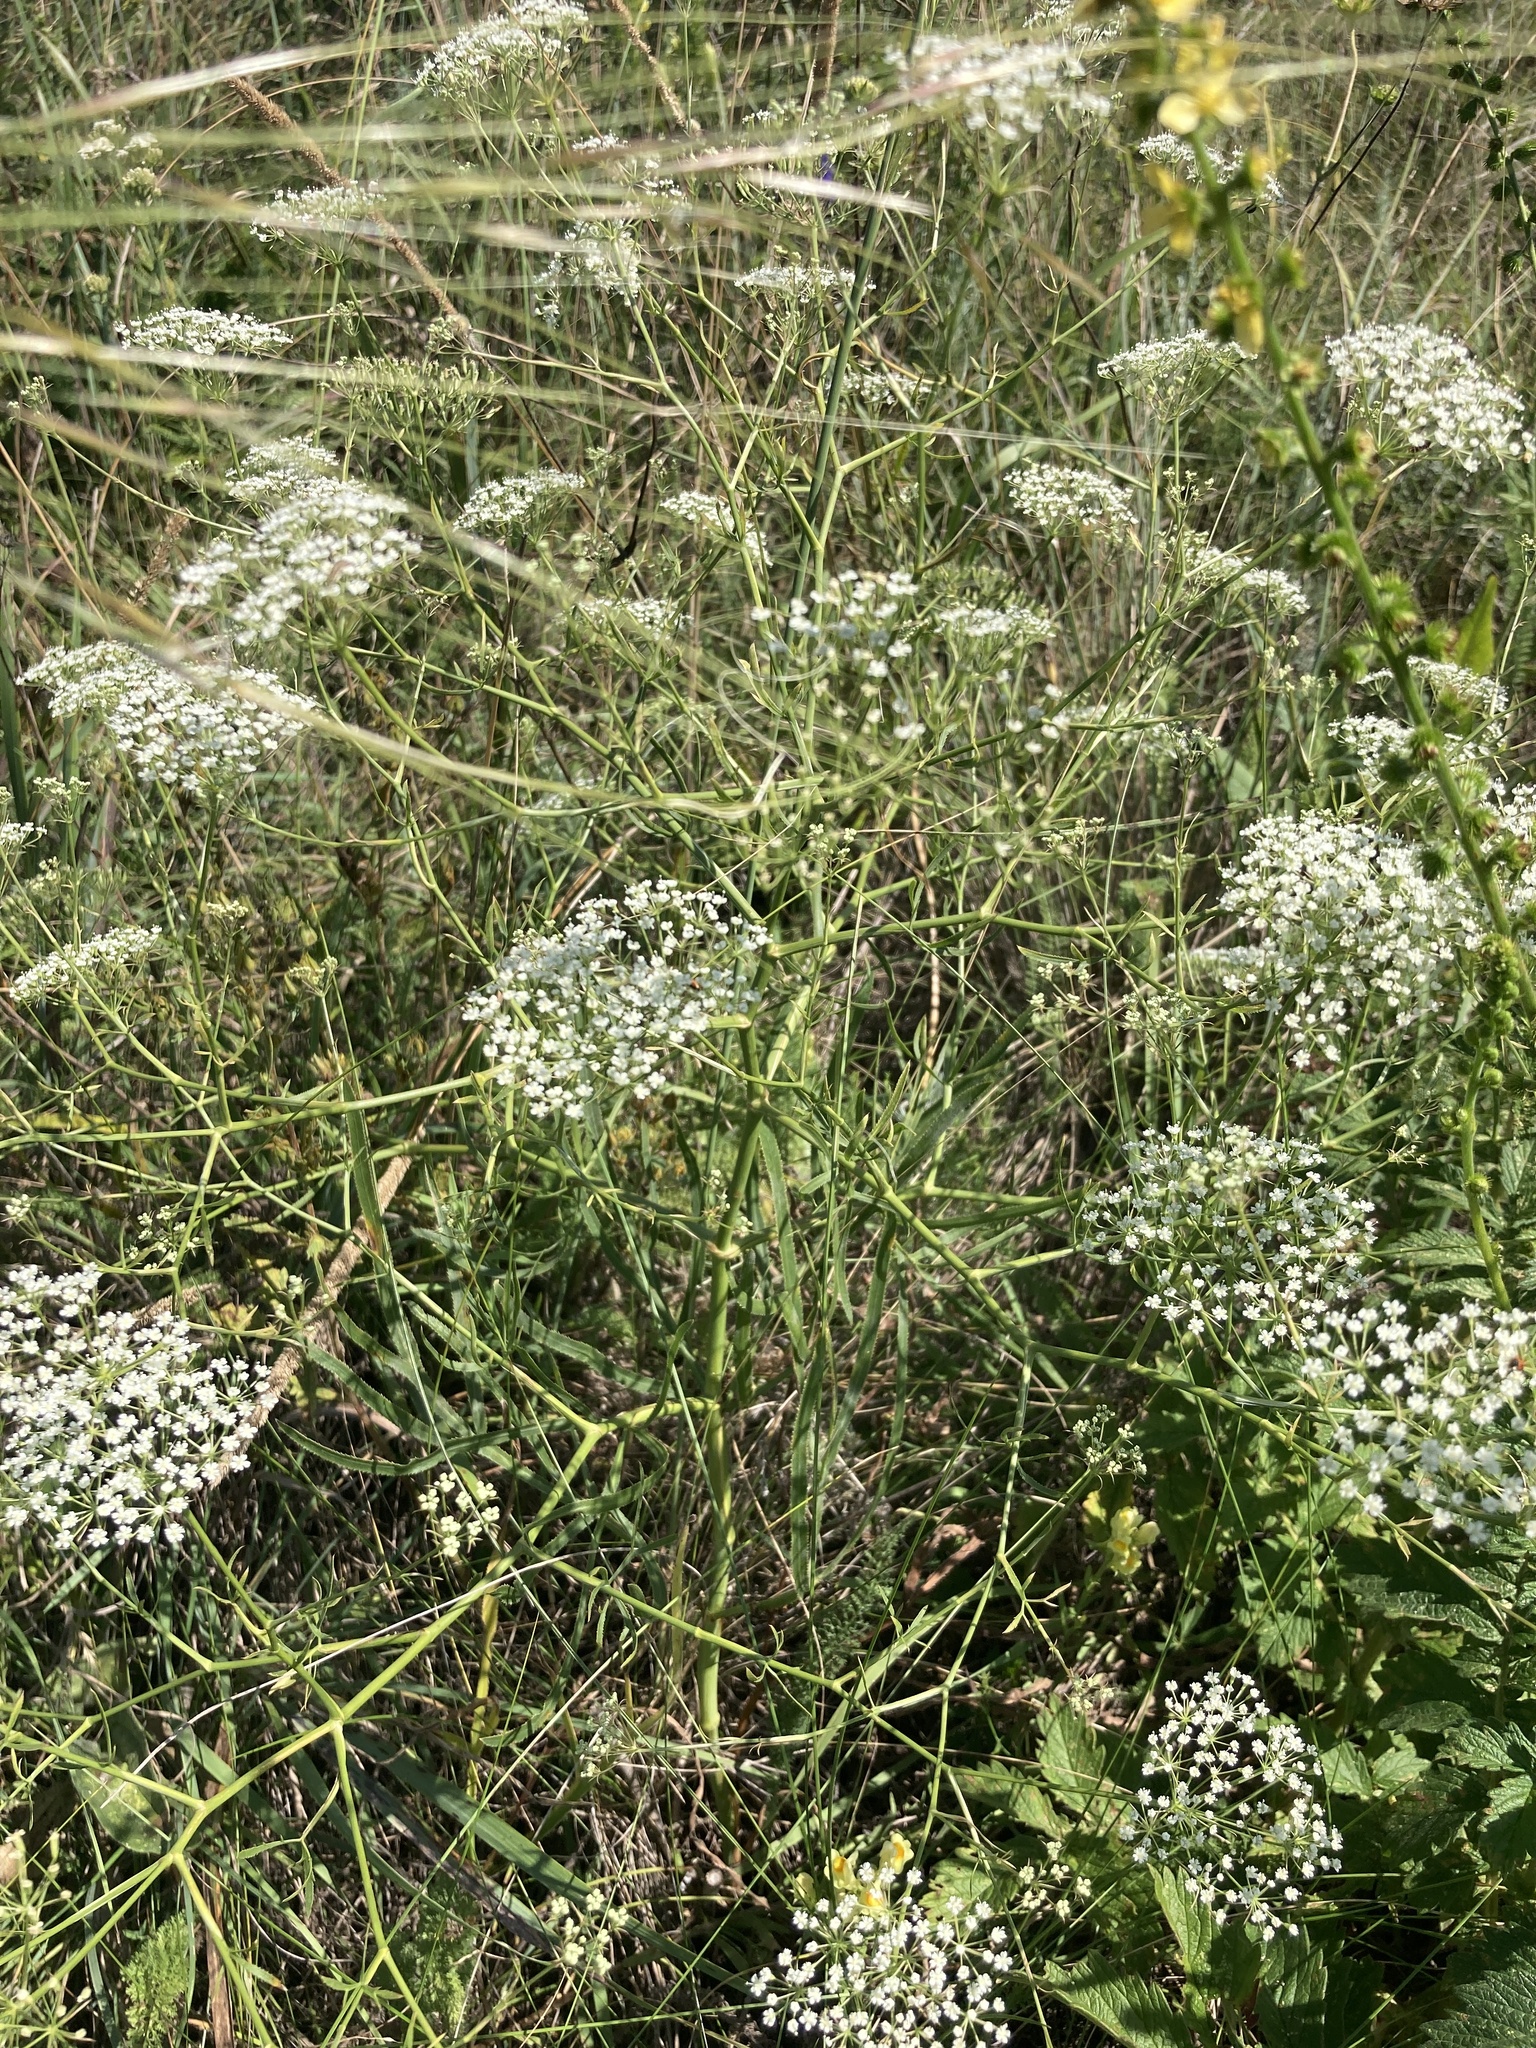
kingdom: Plantae
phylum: Tracheophyta
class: Magnoliopsida
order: Apiales
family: Apiaceae
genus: Falcaria
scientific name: Falcaria vulgaris
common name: Longleaf
